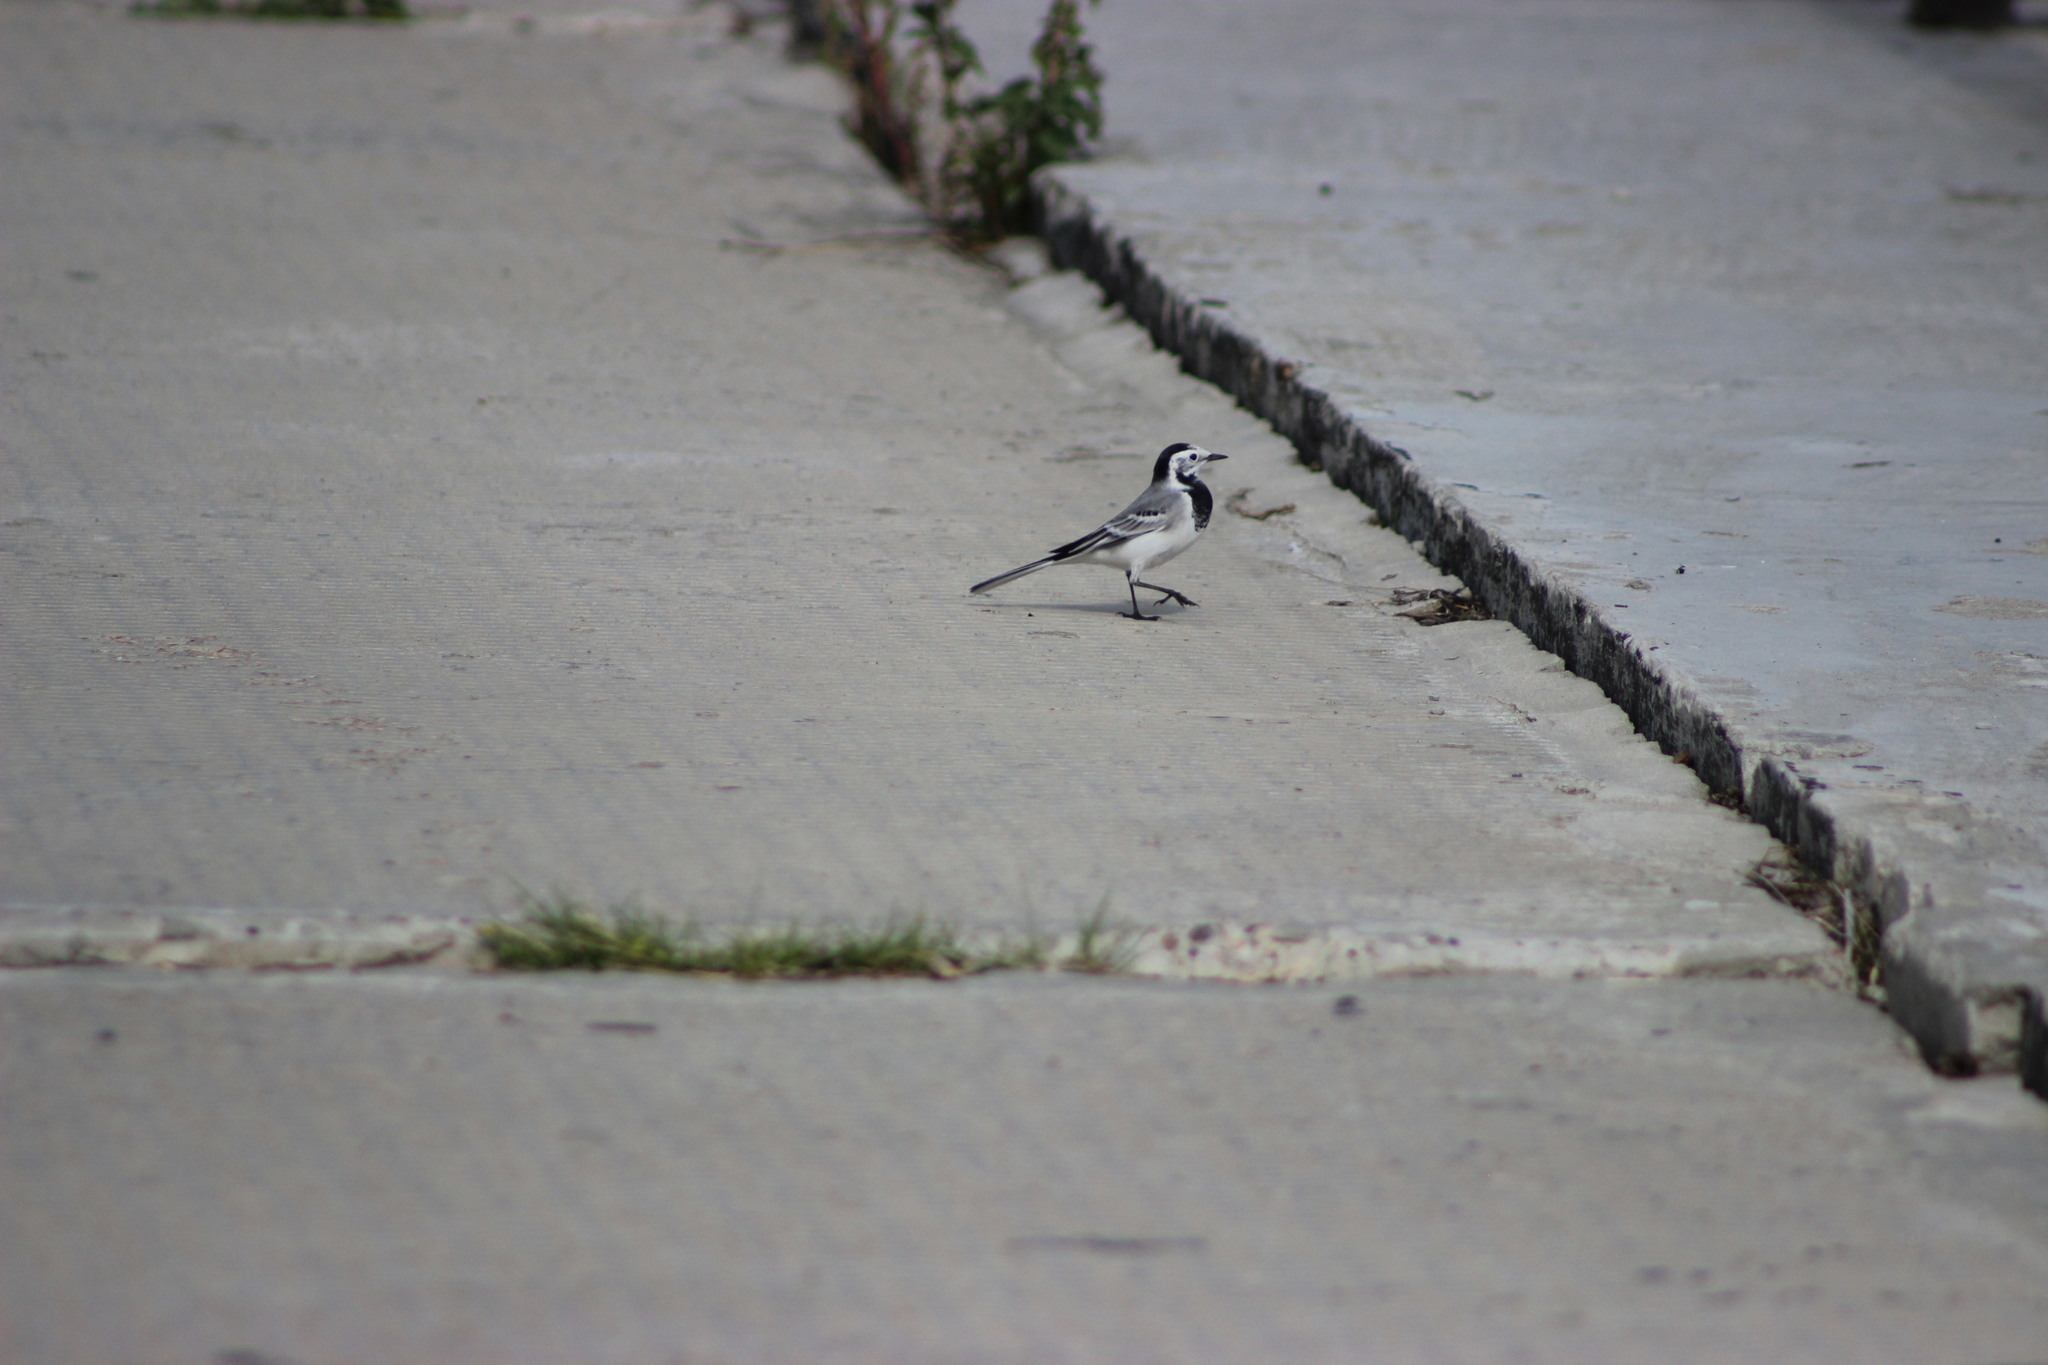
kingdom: Animalia
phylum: Chordata
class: Aves
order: Passeriformes
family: Motacillidae
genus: Motacilla
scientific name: Motacilla alba
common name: White wagtail
